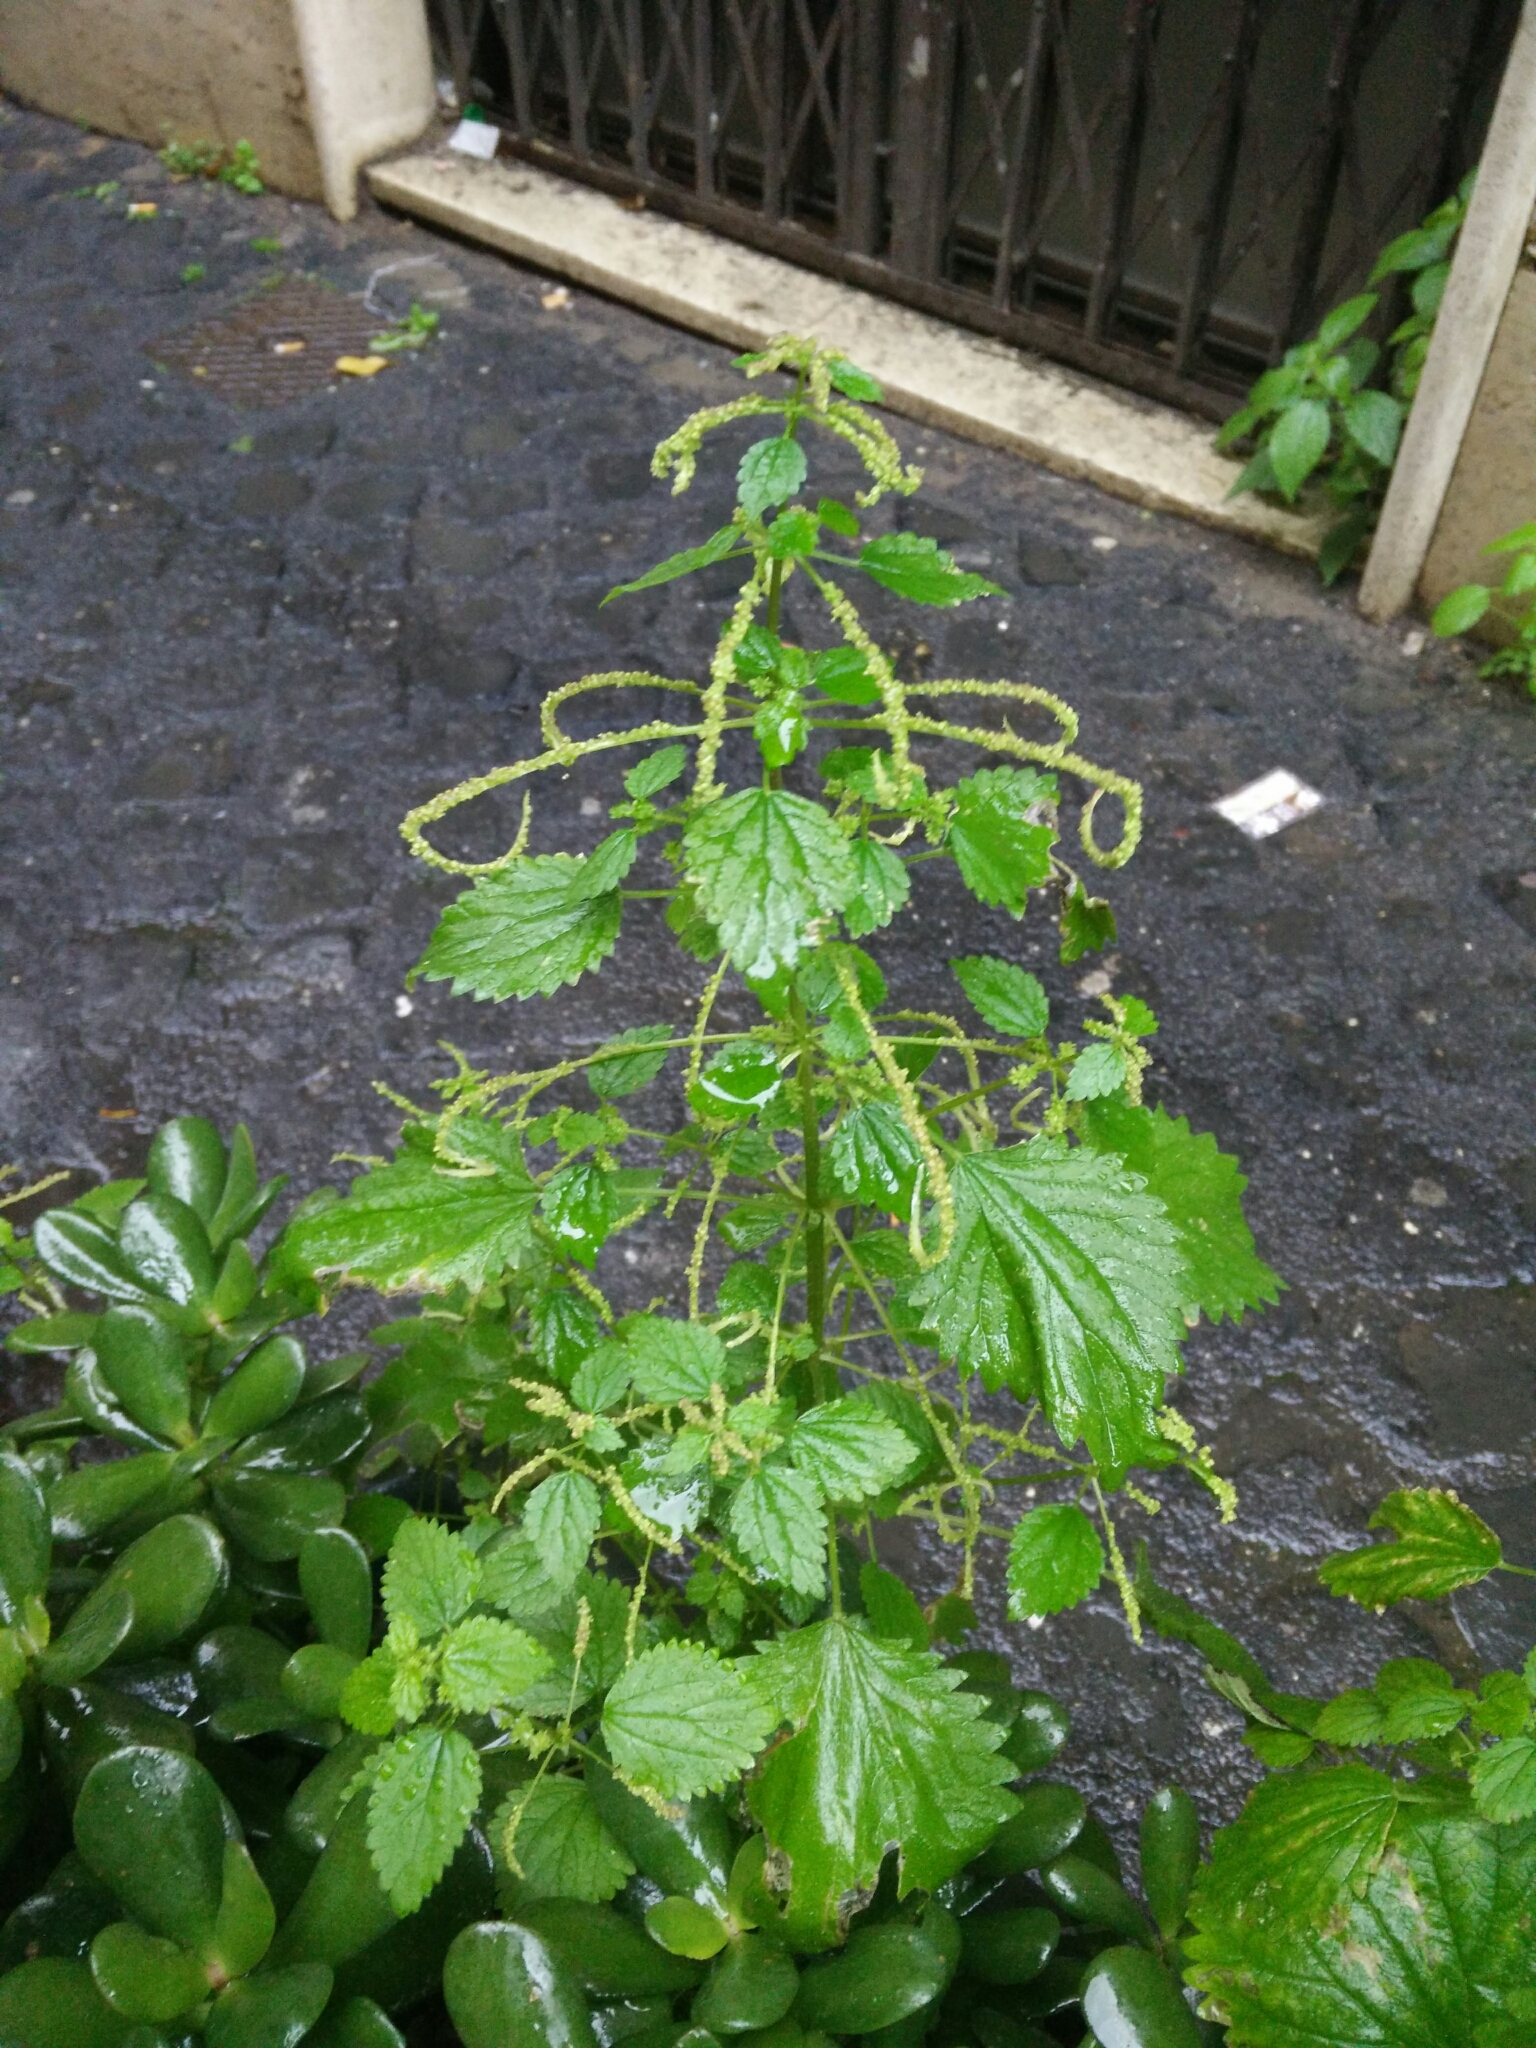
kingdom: Plantae
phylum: Tracheophyta
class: Magnoliopsida
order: Rosales
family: Urticaceae
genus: Urtica
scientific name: Urtica membranacea
